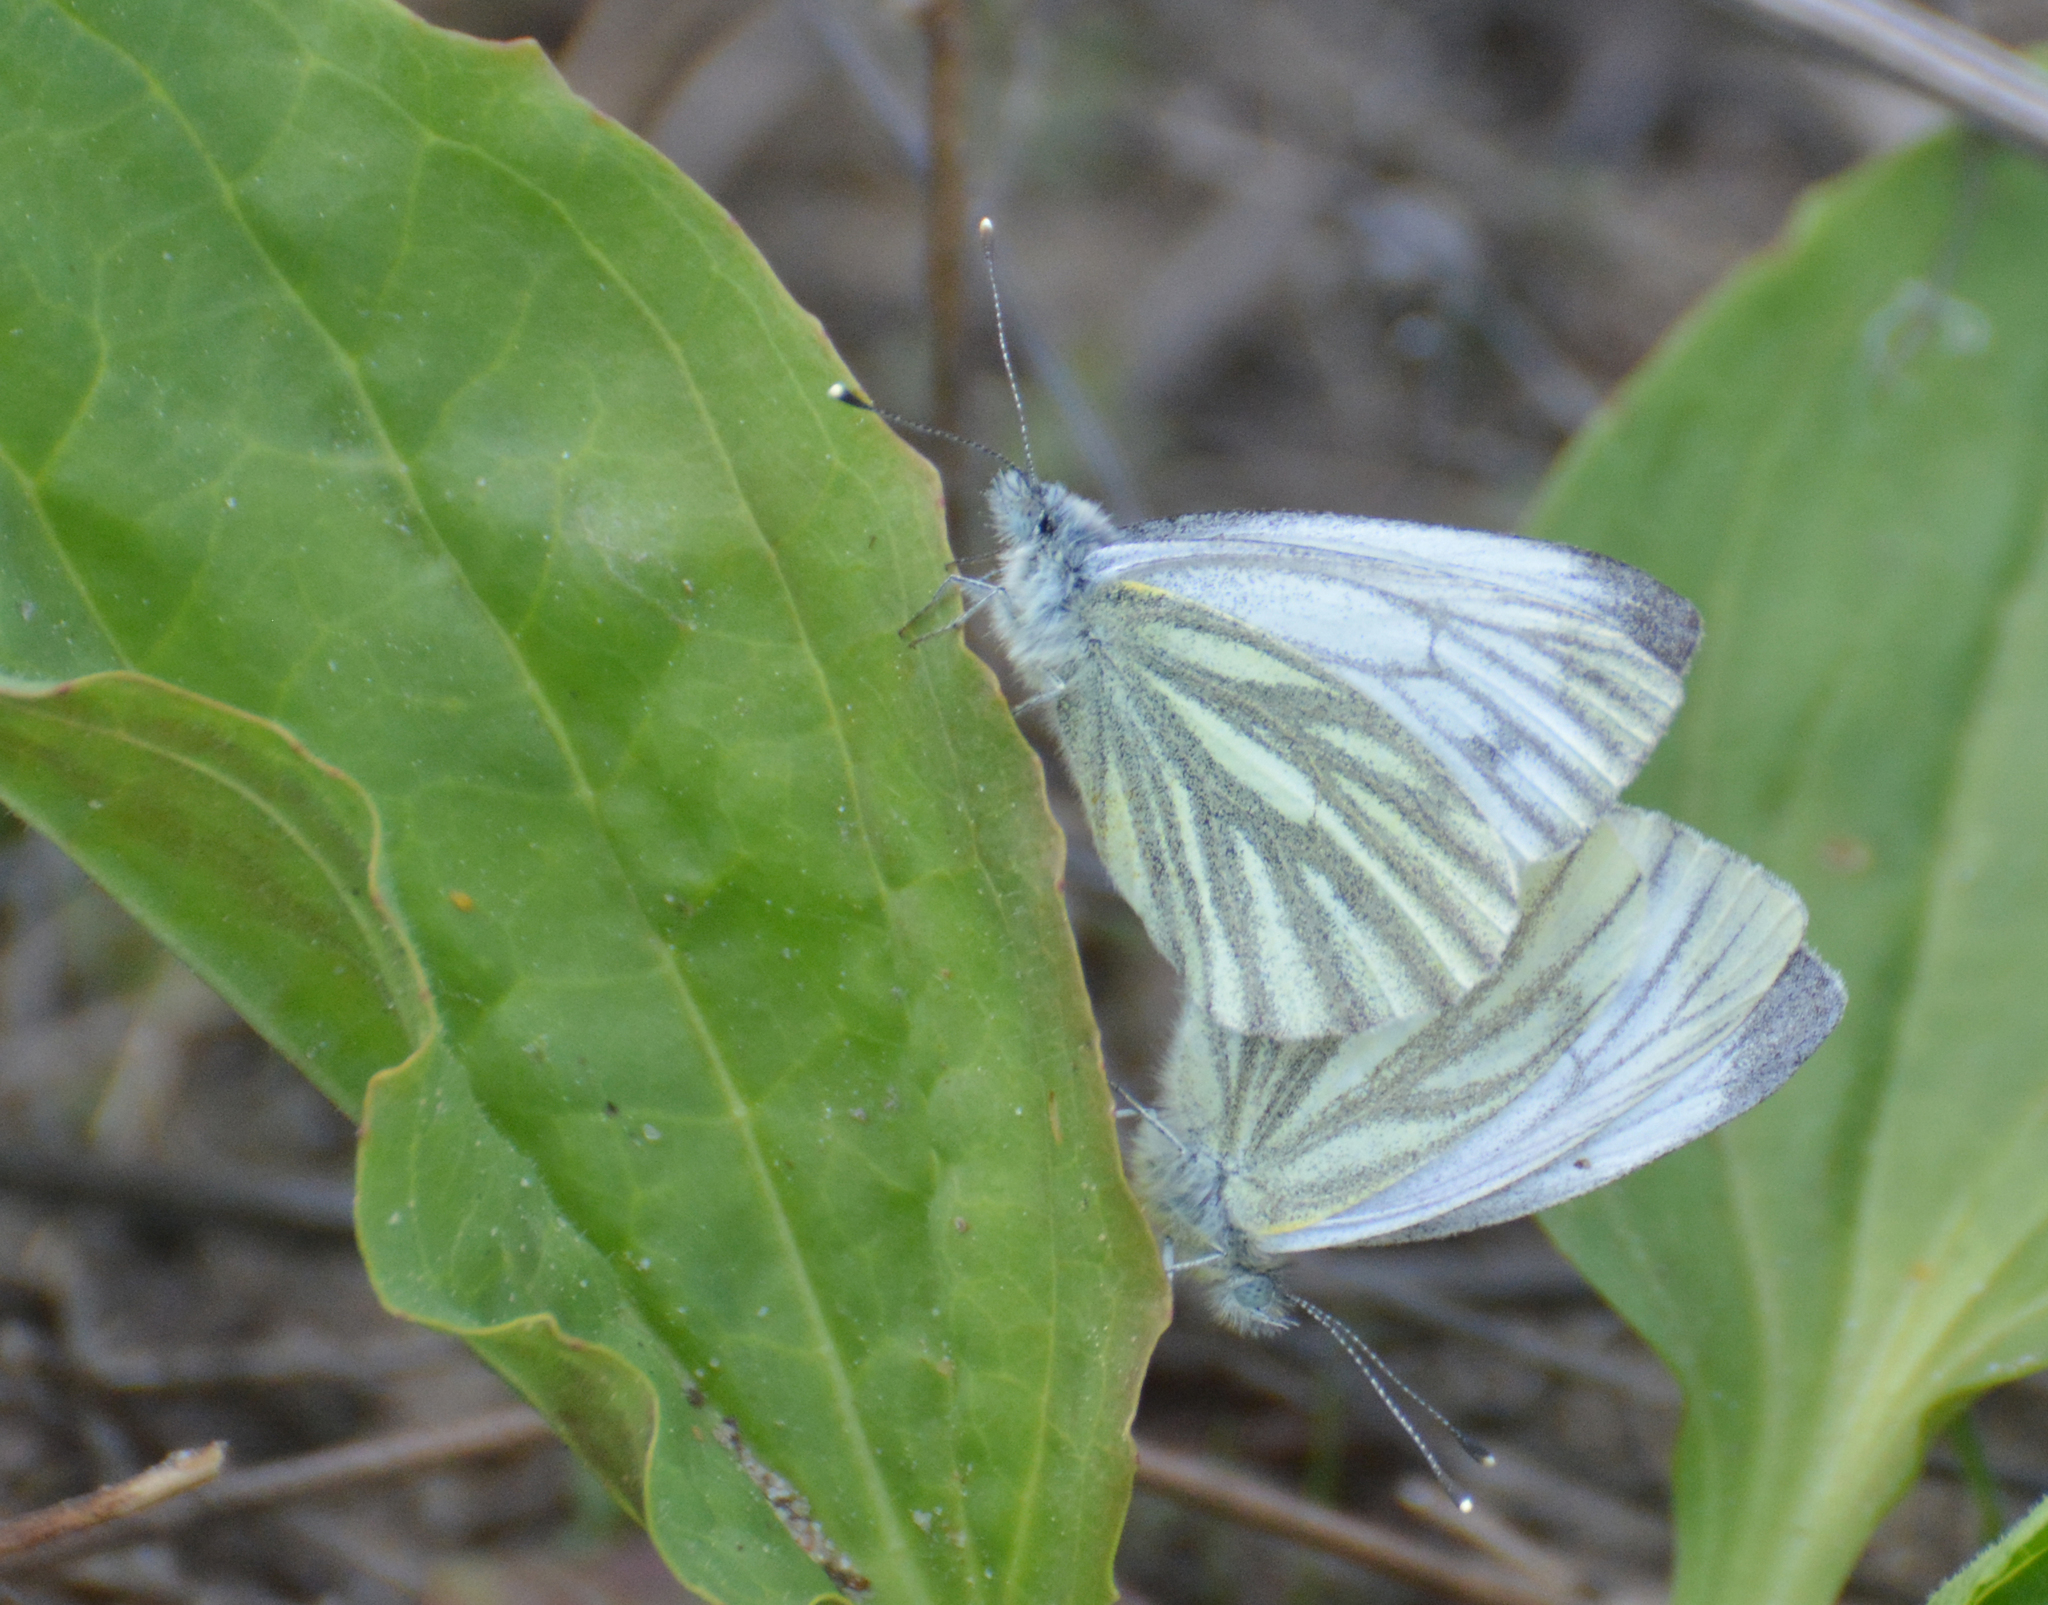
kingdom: Animalia
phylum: Arthropoda
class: Insecta
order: Lepidoptera
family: Pieridae
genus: Pieris
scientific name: Pieris napi
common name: Green-veined white
